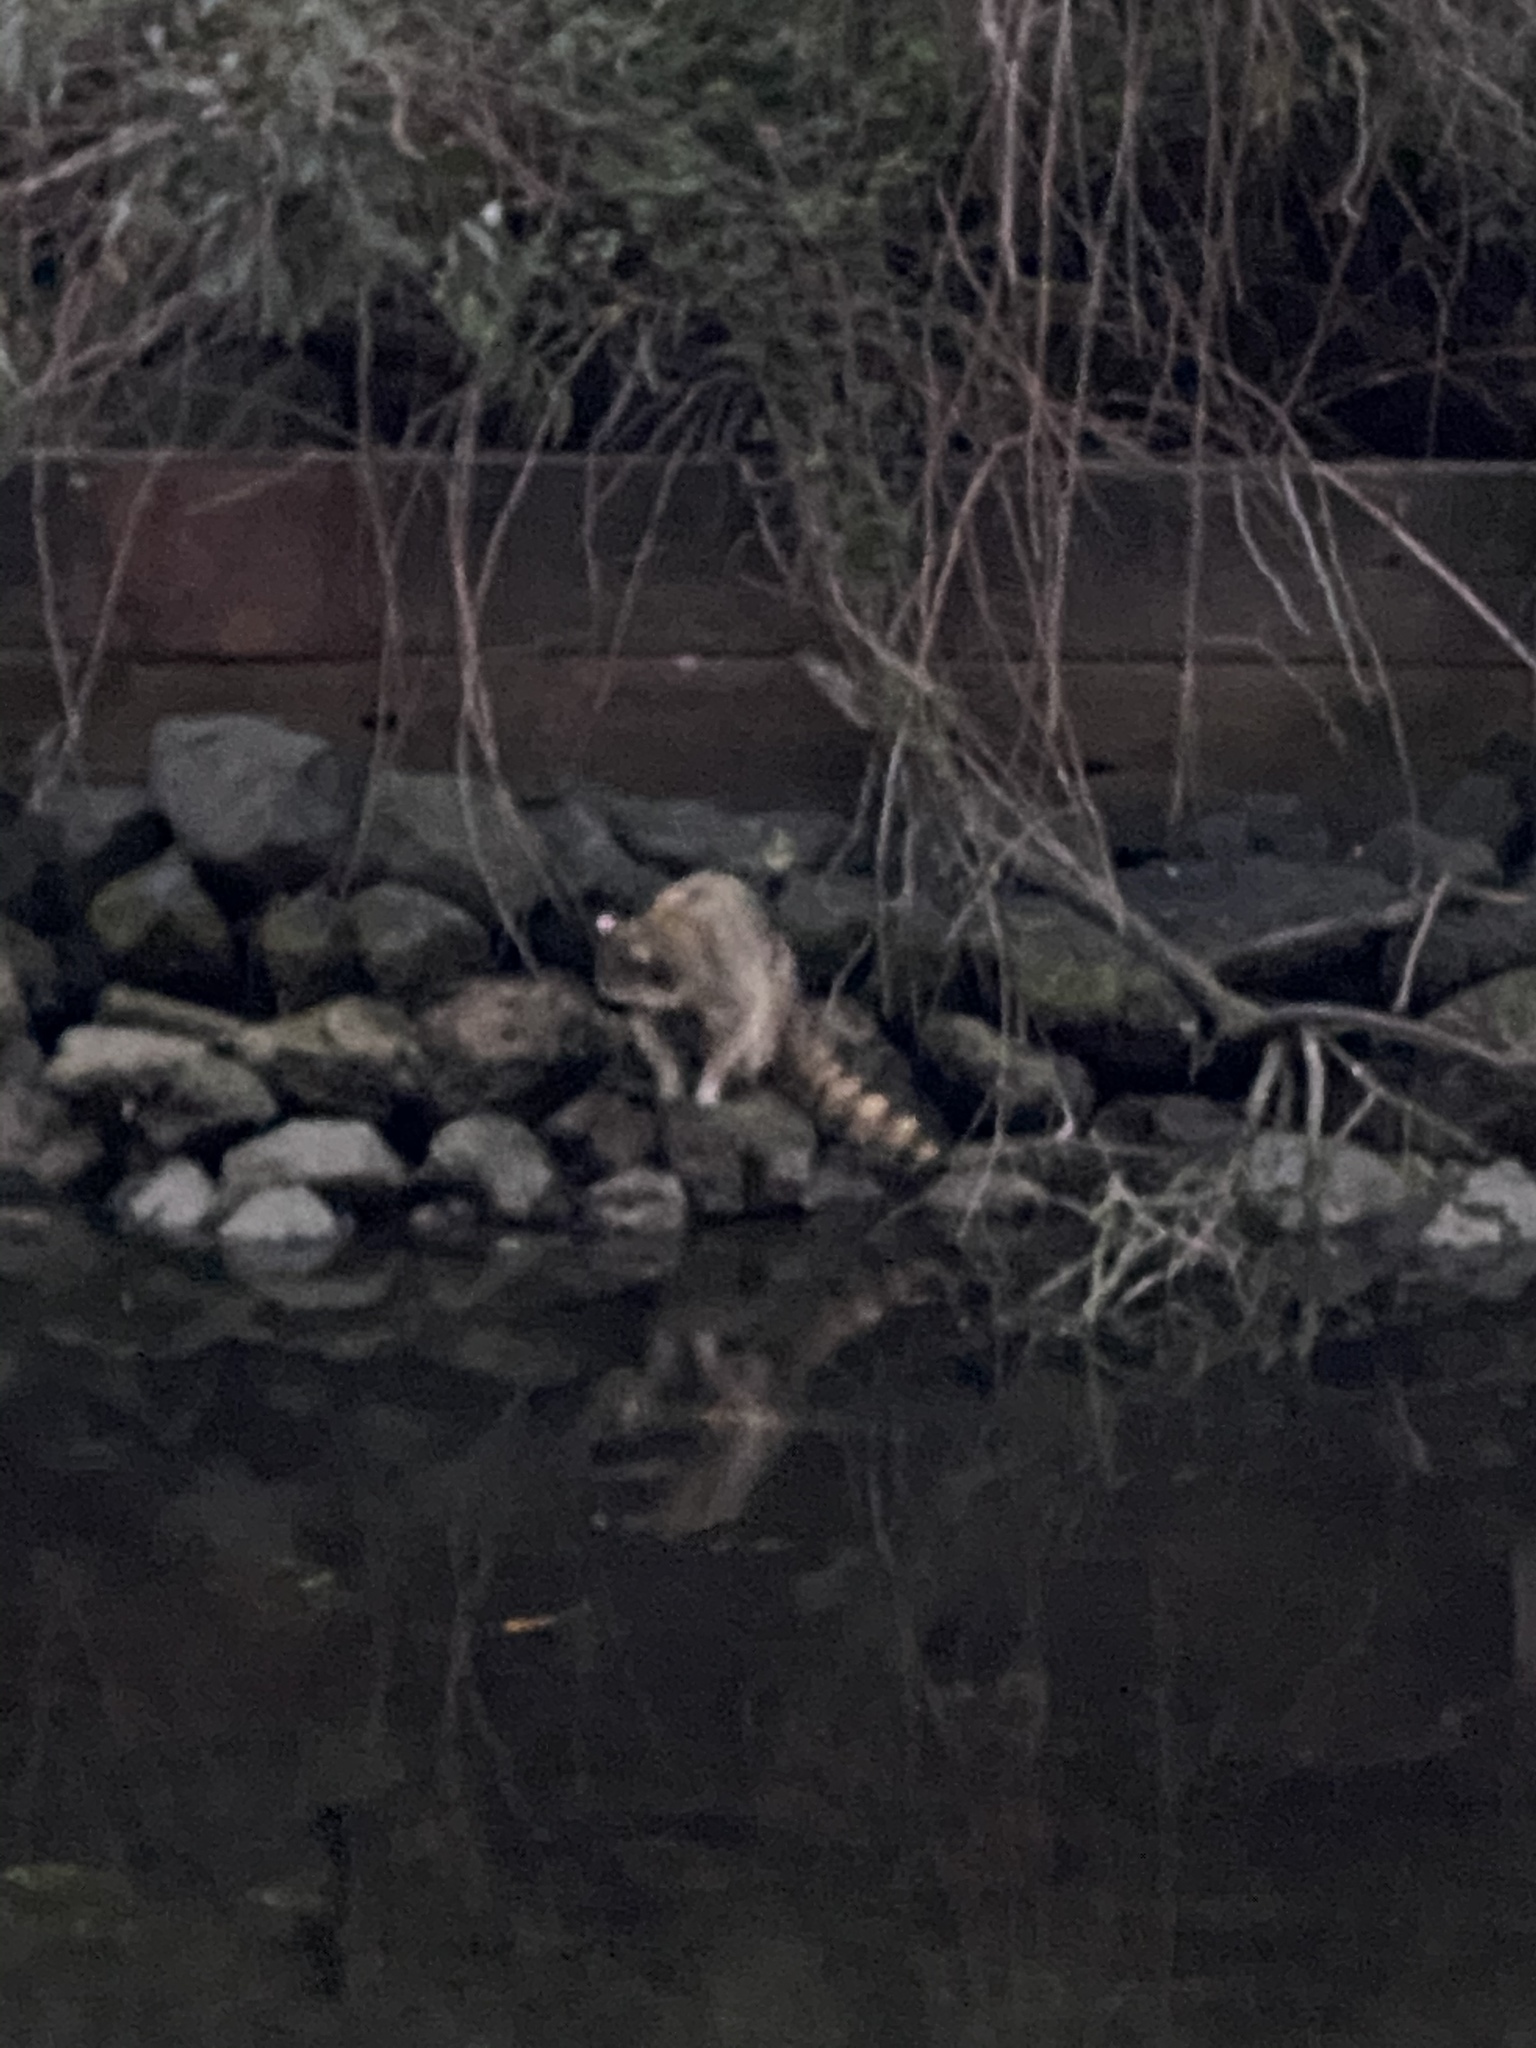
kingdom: Animalia
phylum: Chordata
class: Mammalia
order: Carnivora
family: Procyonidae
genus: Procyon
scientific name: Procyon lotor
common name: Raccoon
